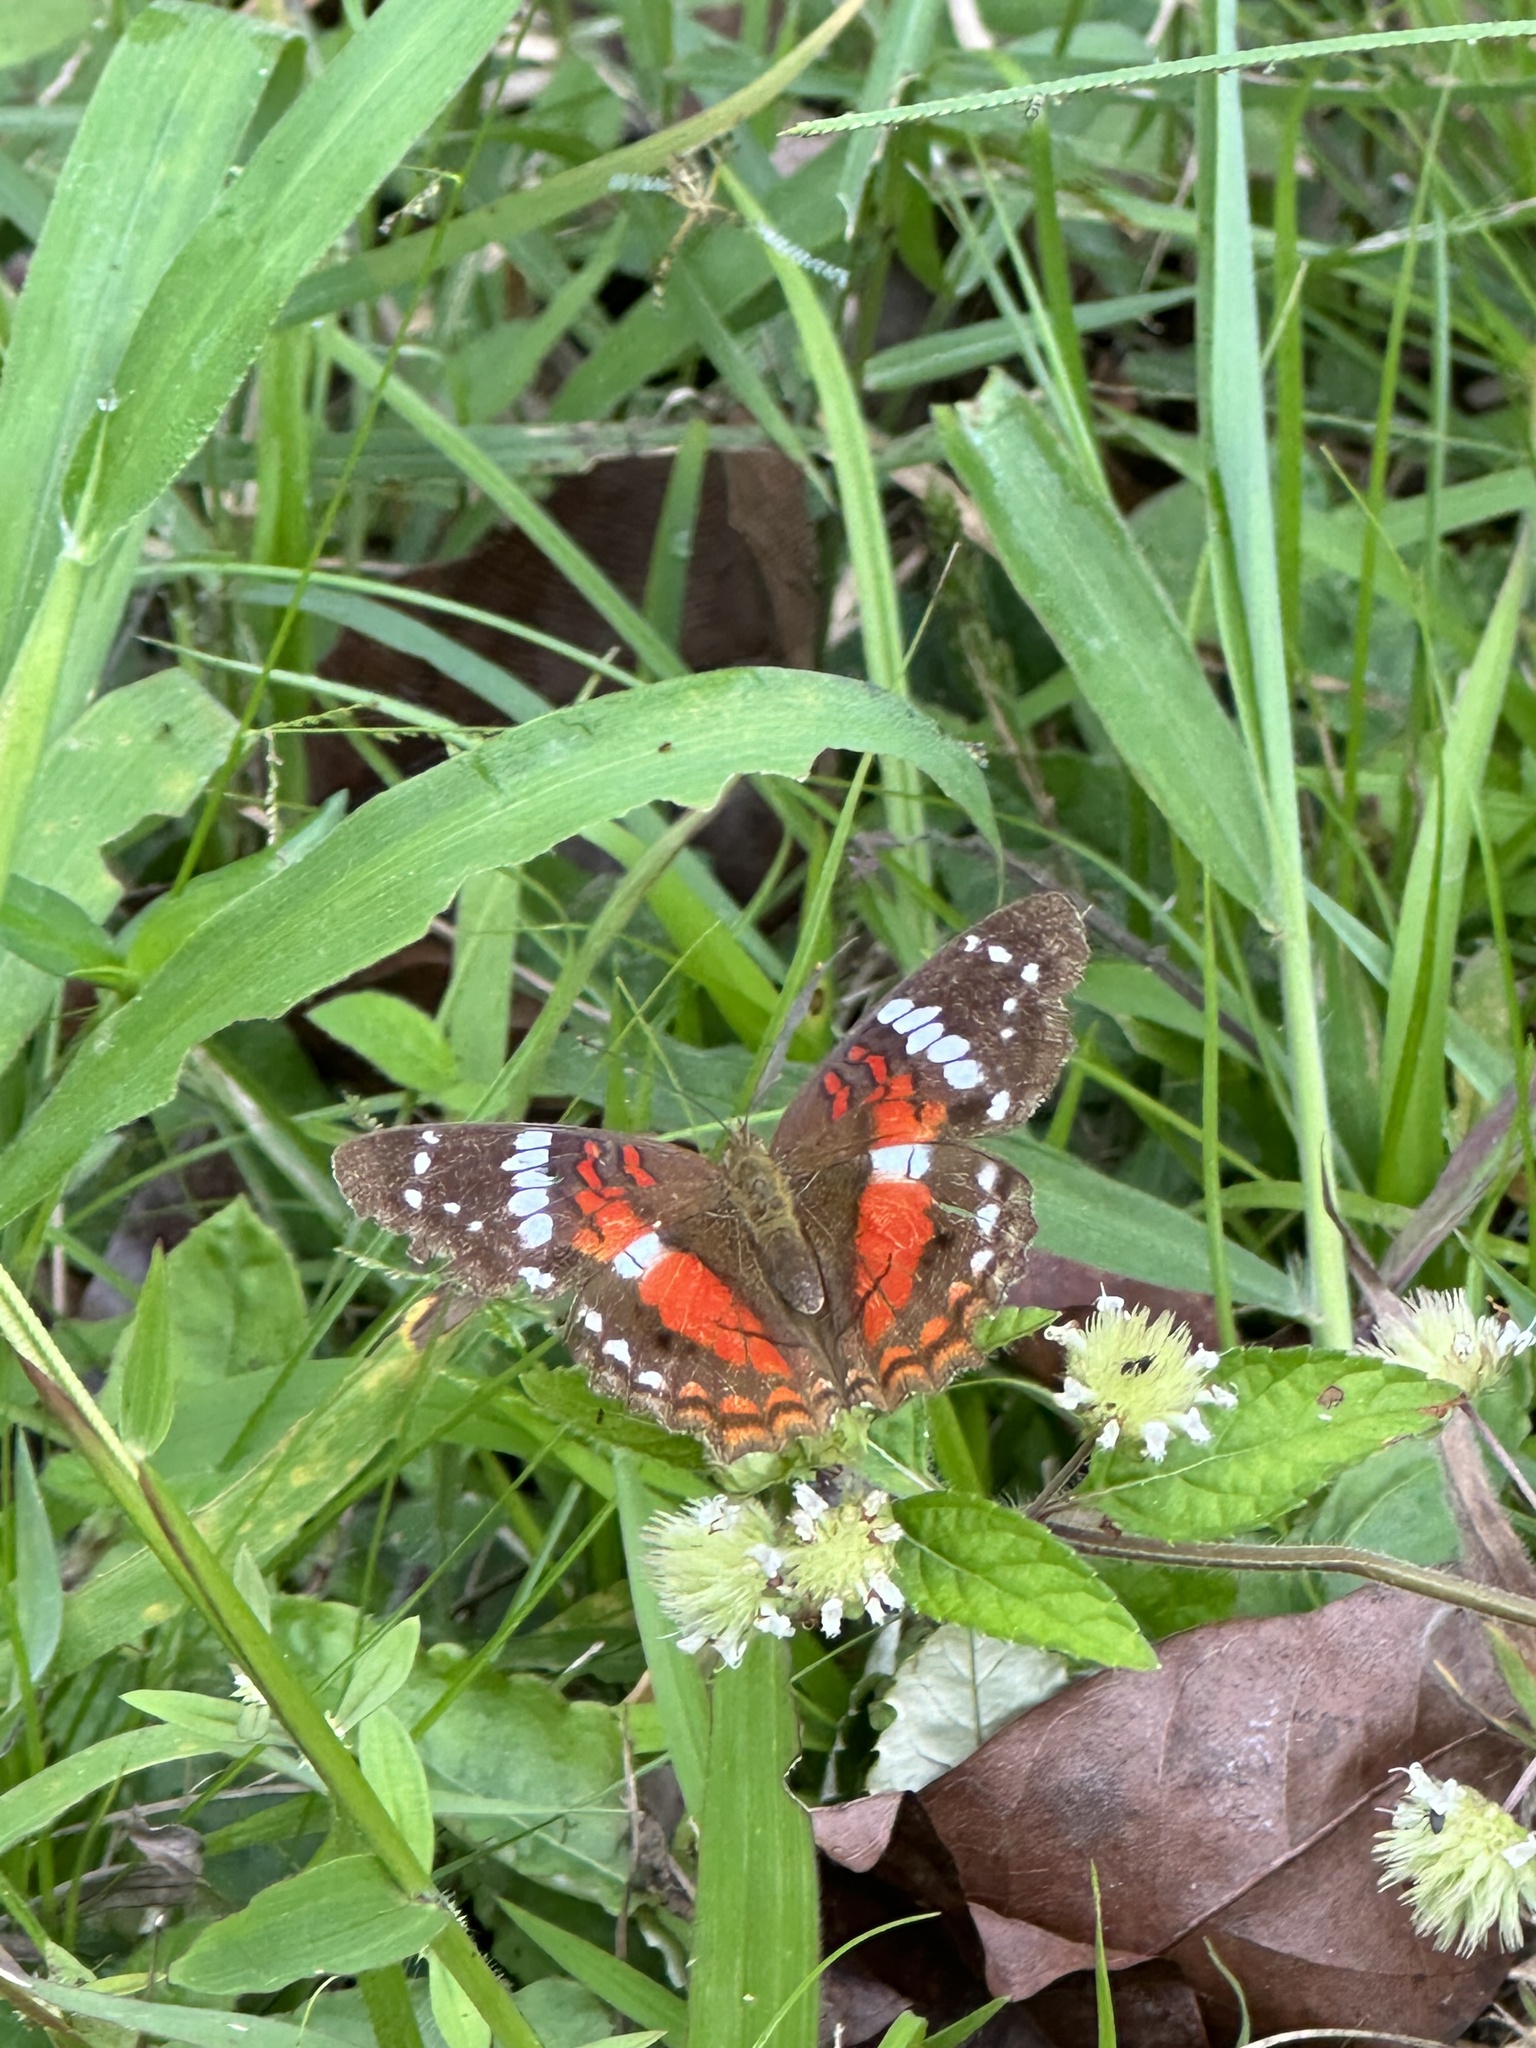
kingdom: Animalia
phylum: Arthropoda
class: Insecta
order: Lepidoptera
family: Nymphalidae
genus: Anartia
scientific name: Anartia amathea
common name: Red peacock
